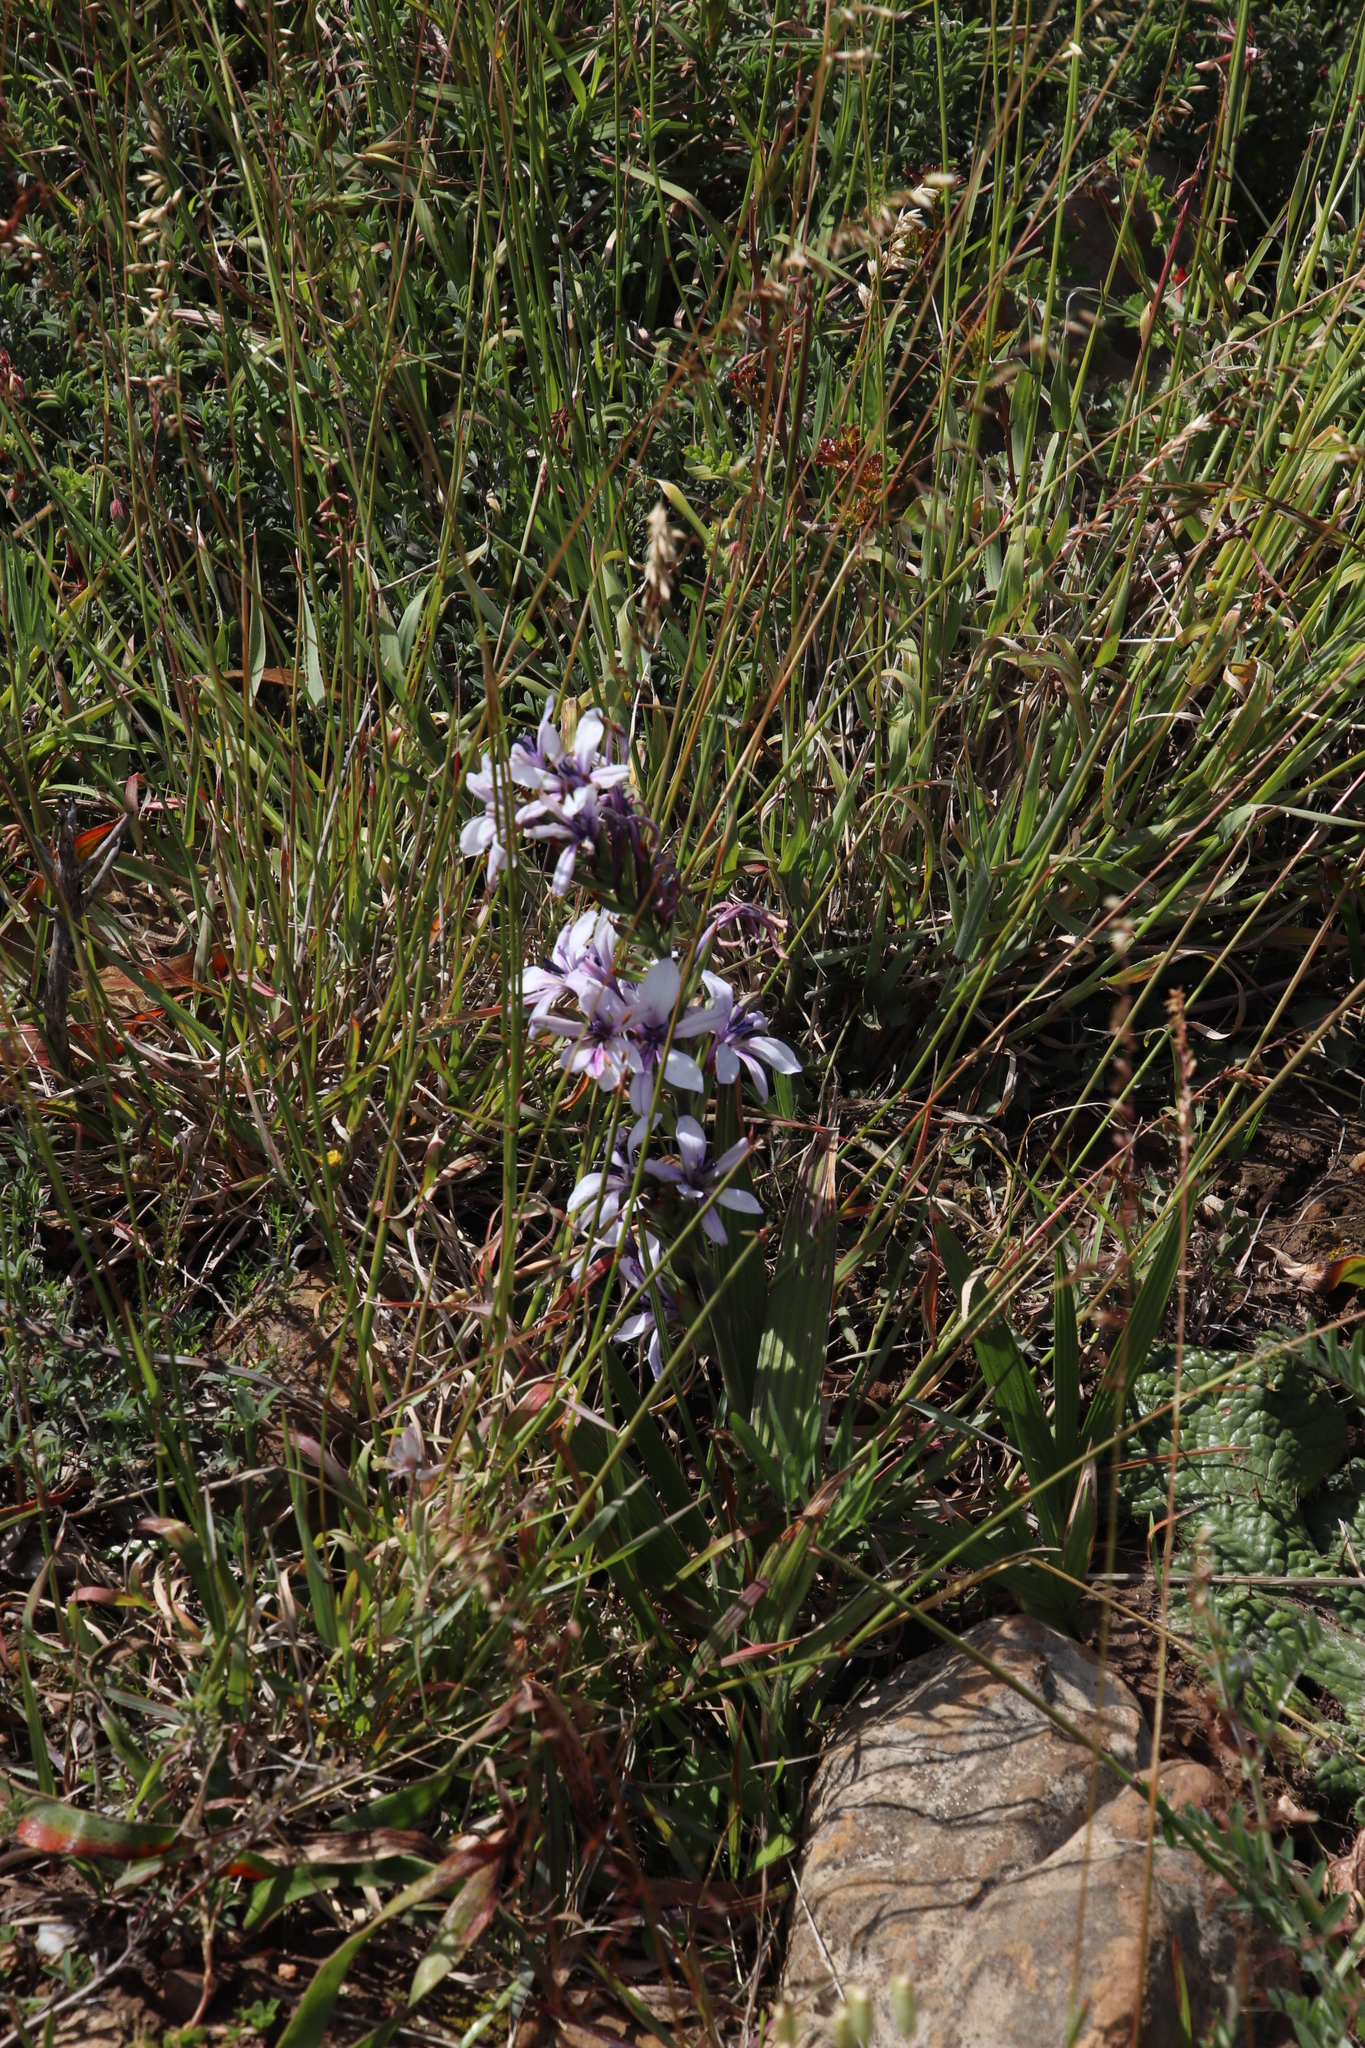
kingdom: Plantae
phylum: Tracheophyta
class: Liliopsida
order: Asparagales
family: Iridaceae
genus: Babiana
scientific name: Babiana fragrans
